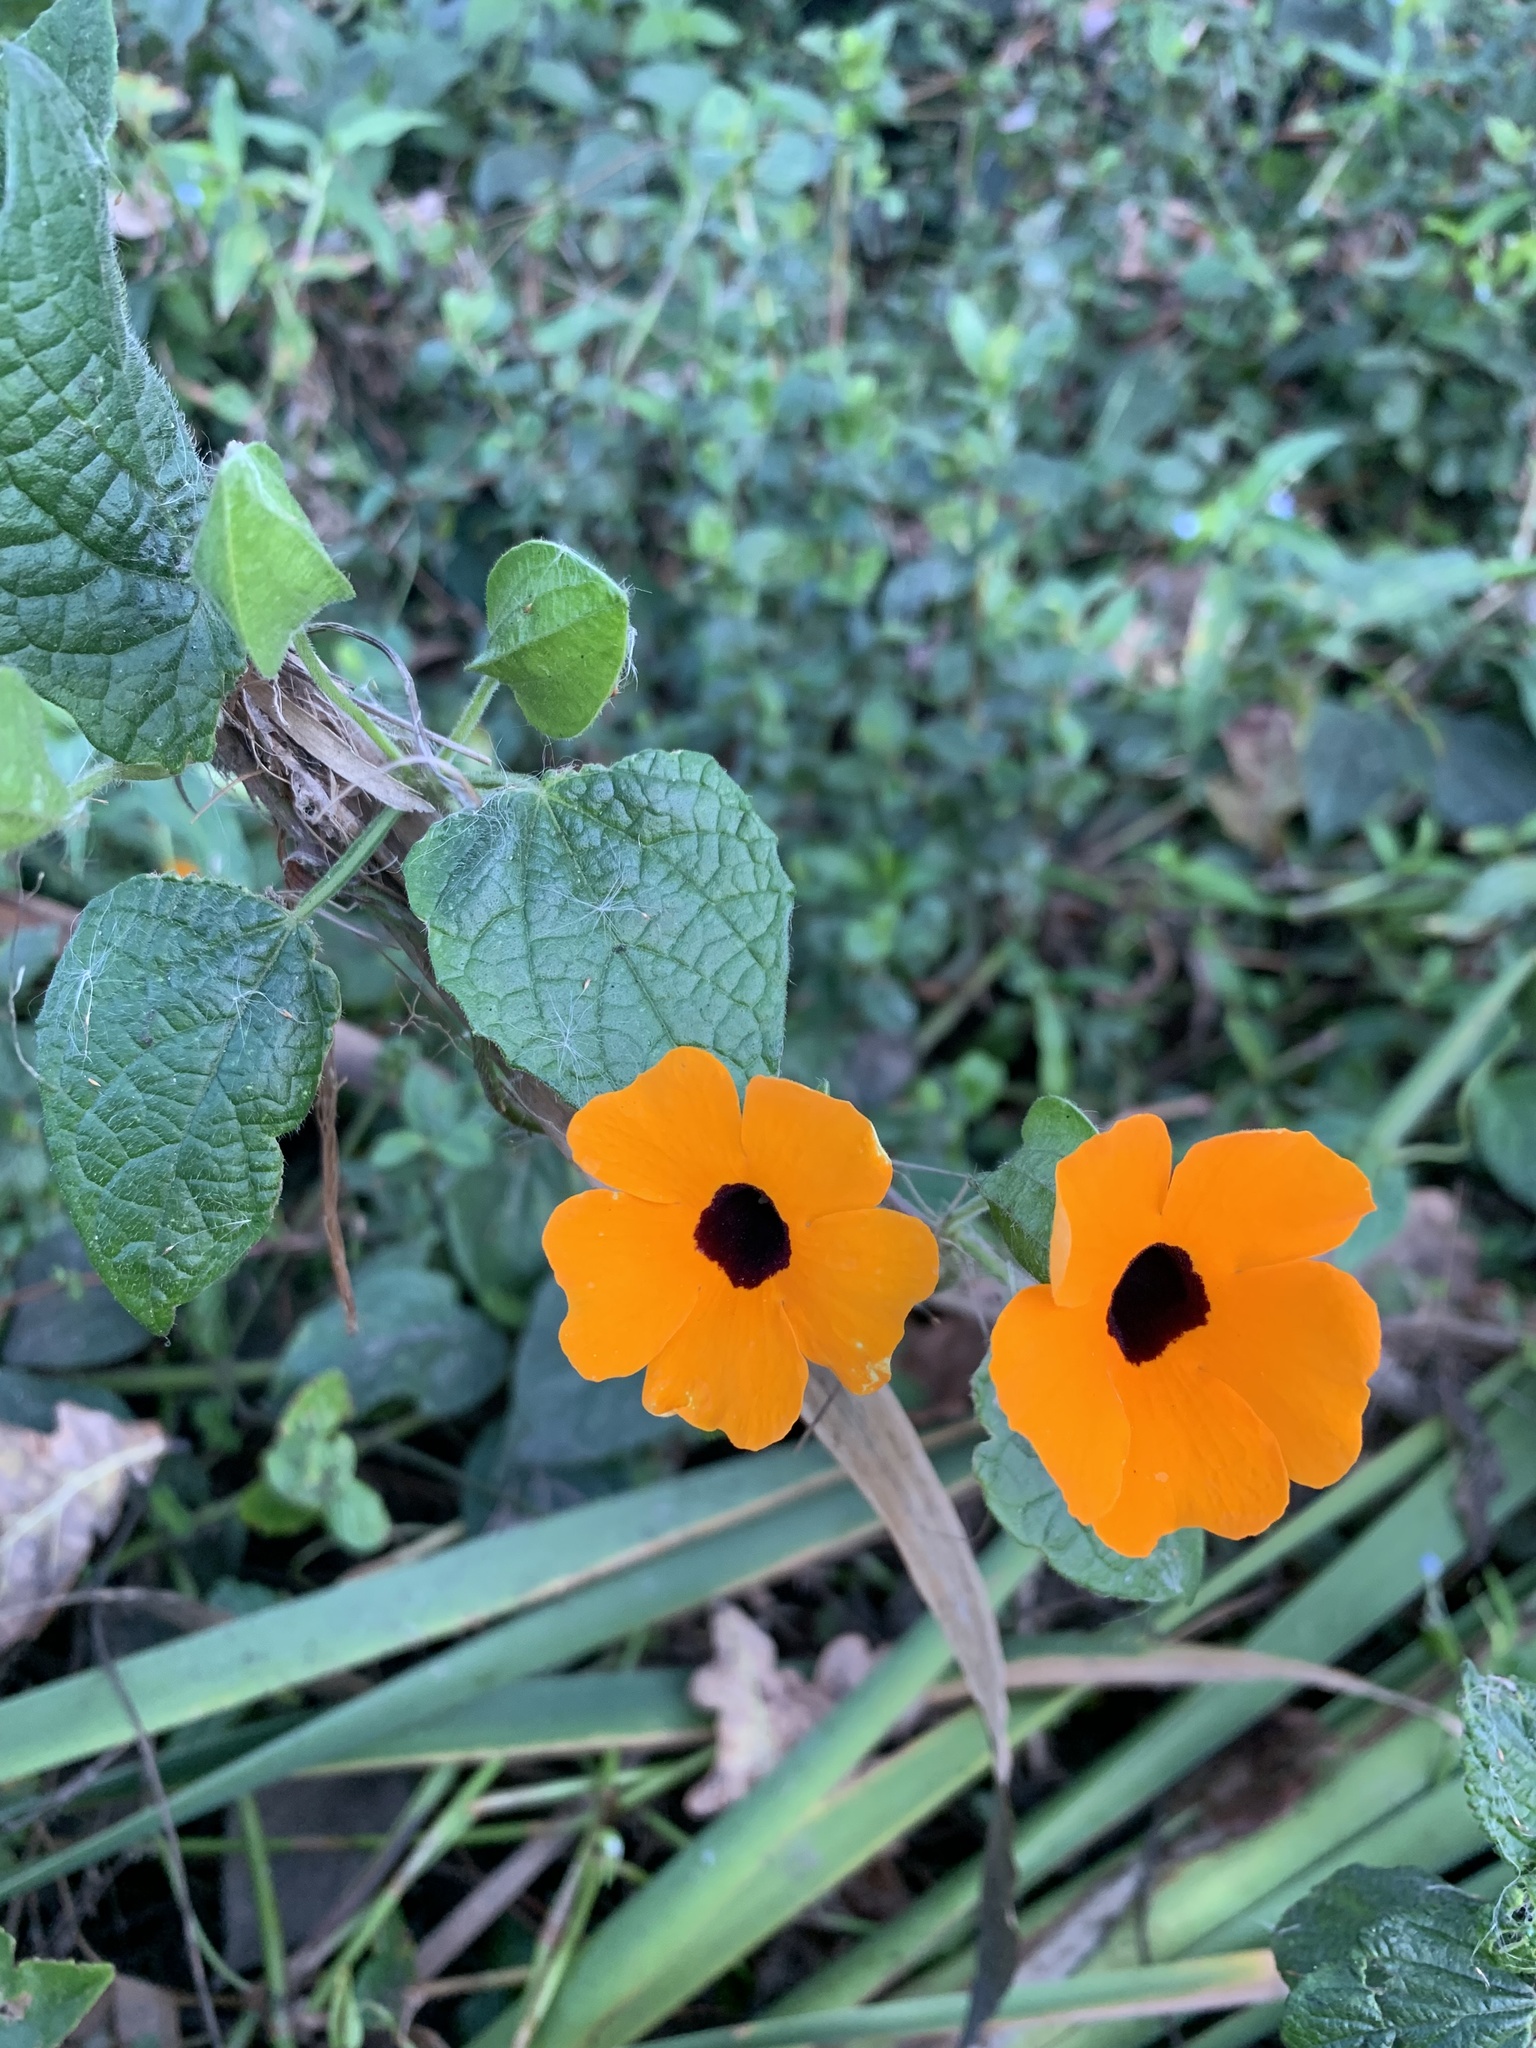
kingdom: Plantae
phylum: Tracheophyta
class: Magnoliopsida
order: Lamiales
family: Acanthaceae
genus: Thunbergia
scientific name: Thunbergia alata
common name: Blackeyed susan vine
